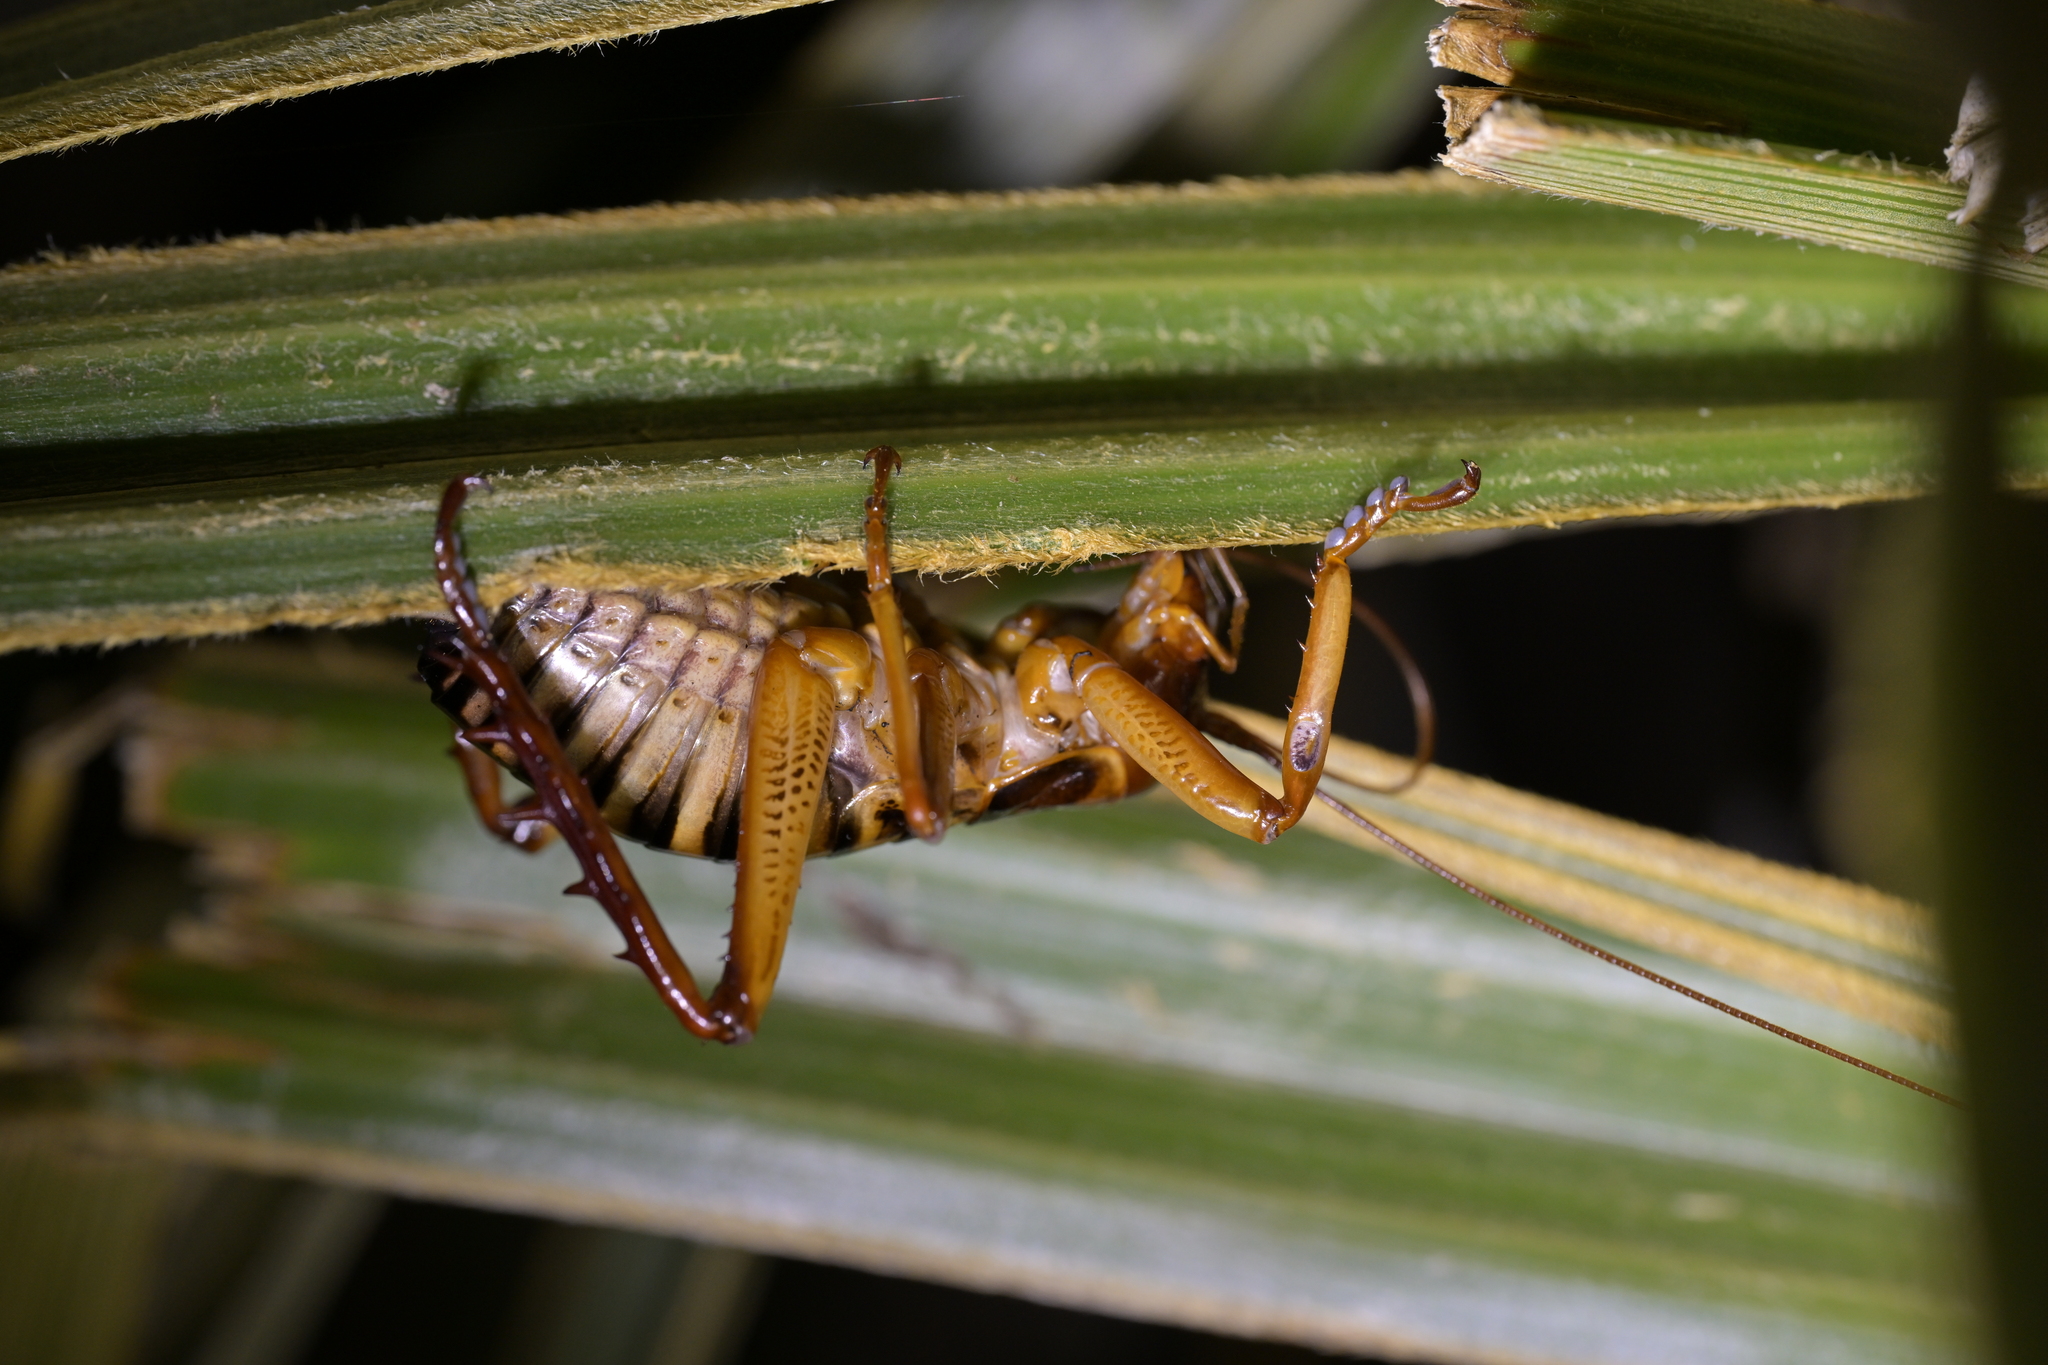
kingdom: Animalia
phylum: Arthropoda
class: Insecta
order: Orthoptera
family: Anostostomatidae
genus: Hemideina
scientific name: Hemideina crassidens
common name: Wellington tree weta
